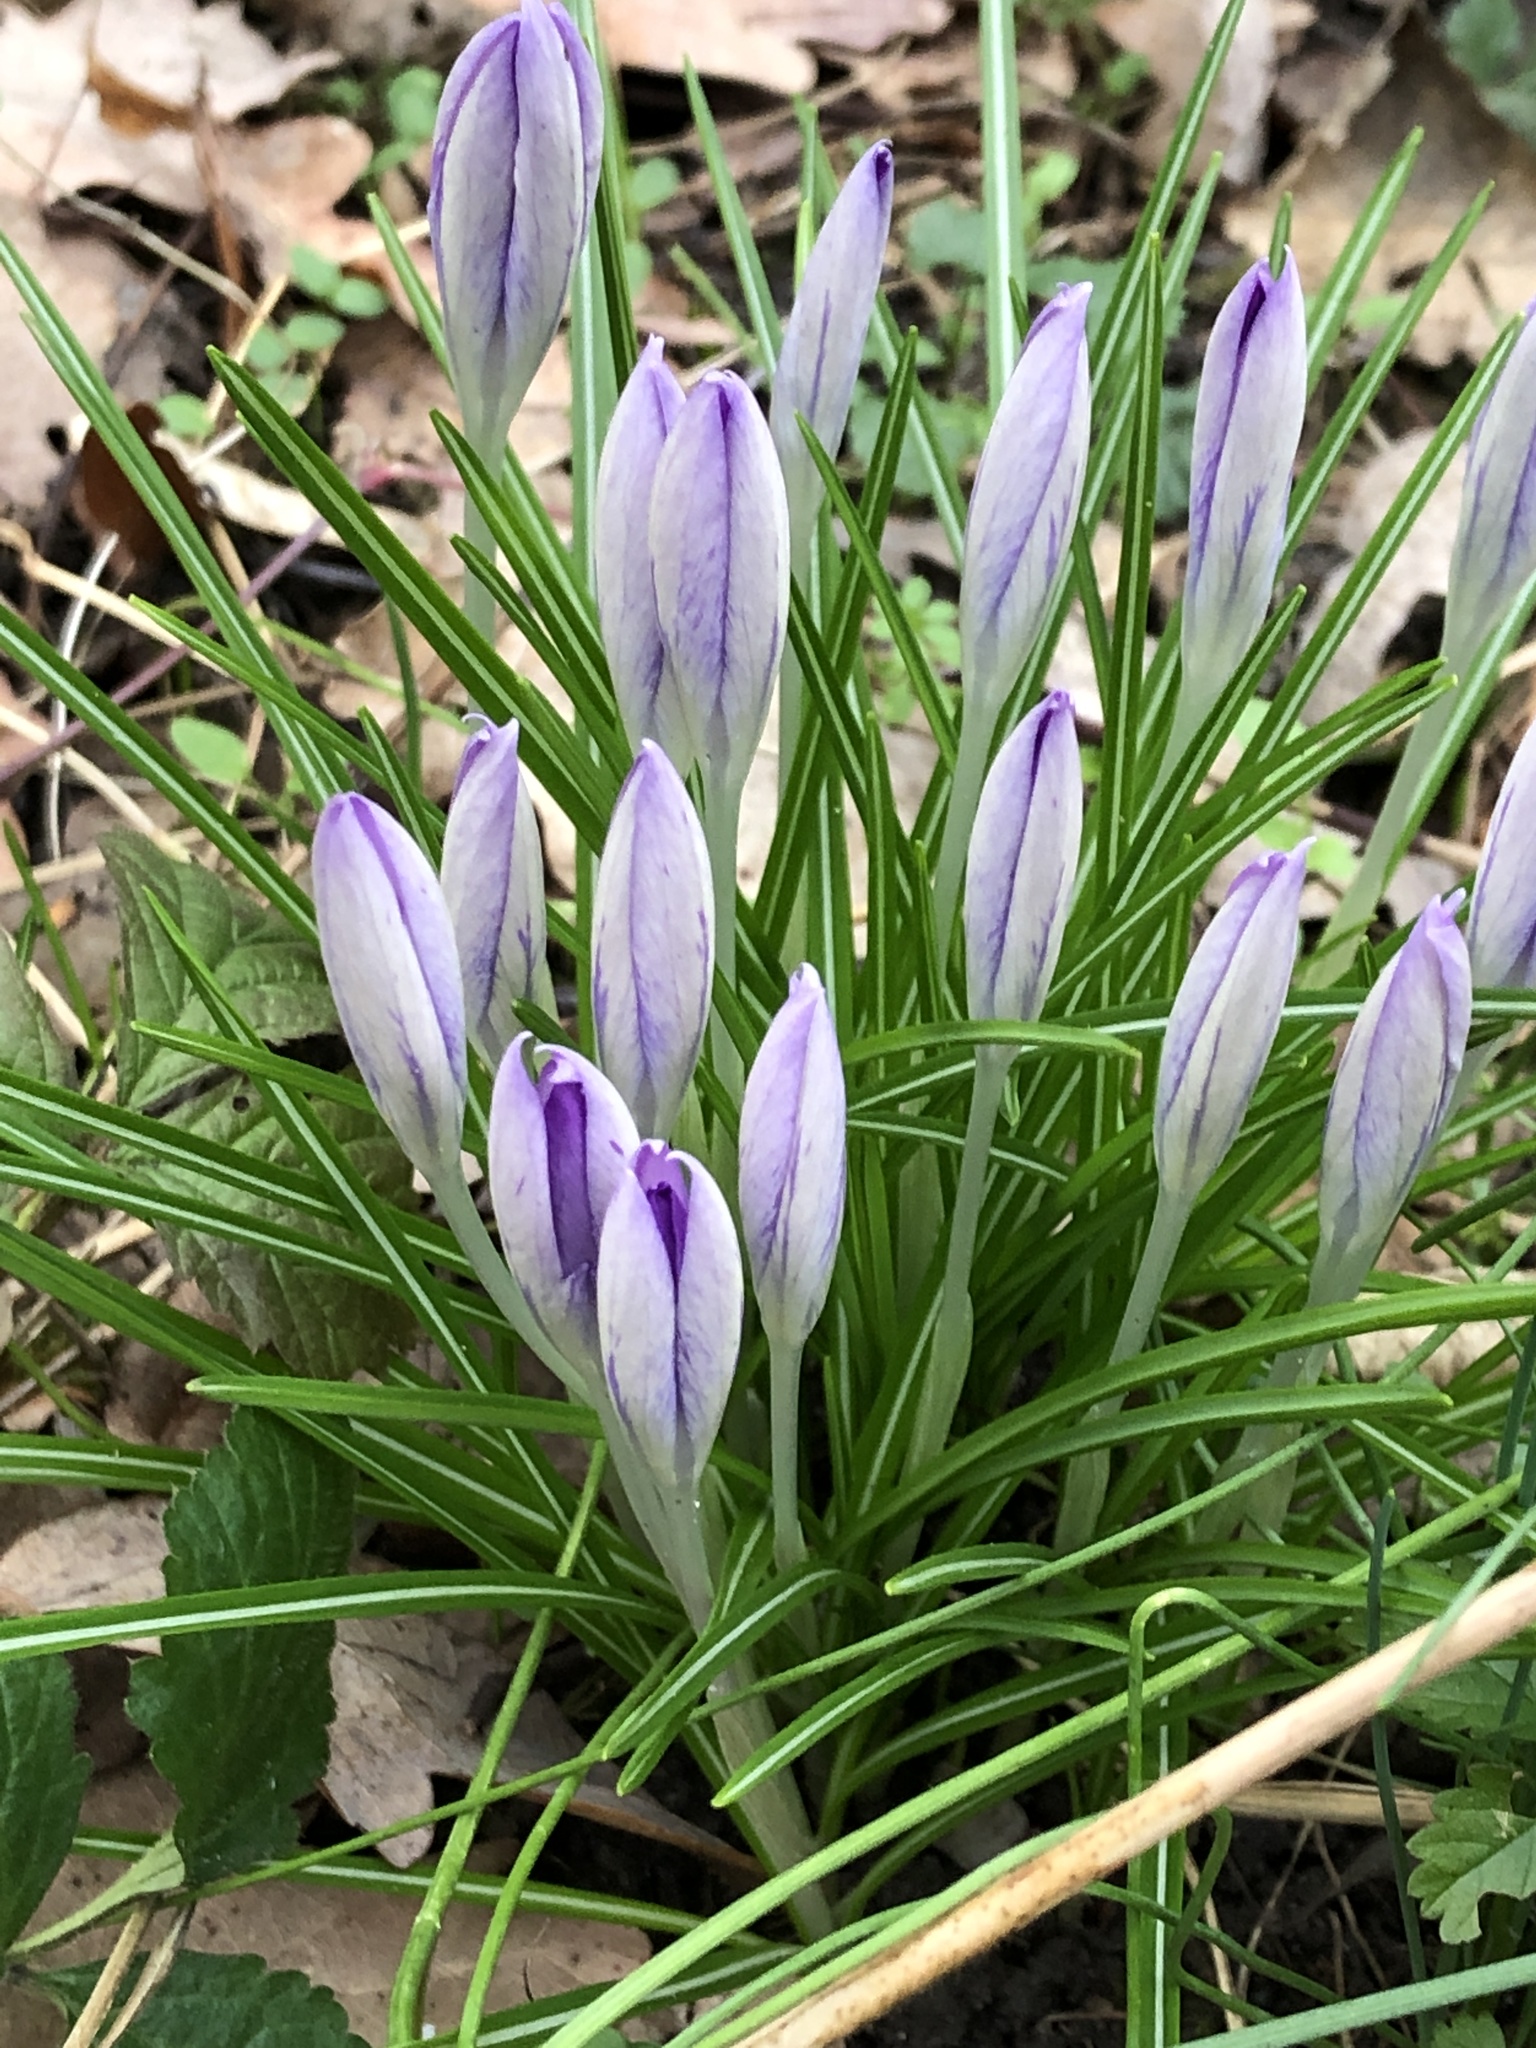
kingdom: Plantae
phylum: Tracheophyta
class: Liliopsida
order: Asparagales
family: Iridaceae
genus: Crocus
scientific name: Crocus tommasinianus
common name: Early crocus
